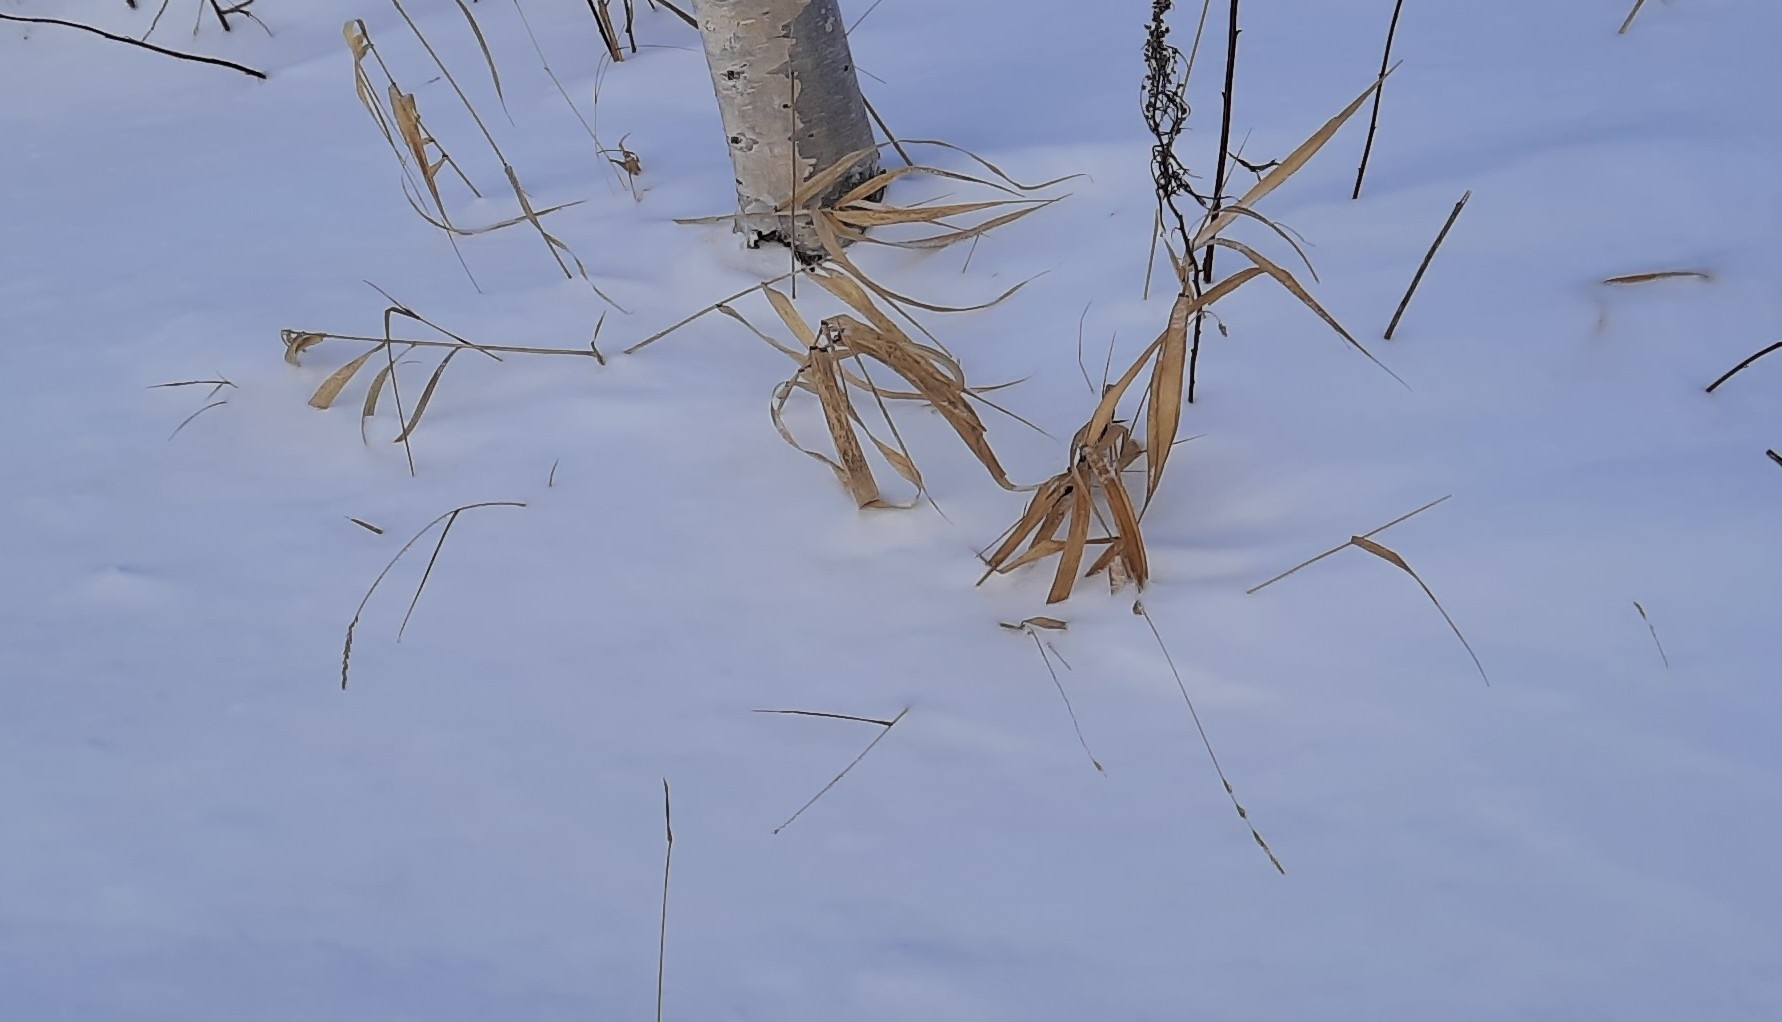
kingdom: Plantae
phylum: Tracheophyta
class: Liliopsida
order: Poales
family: Poaceae
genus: Phragmites
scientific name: Phragmites australis
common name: Common reed
